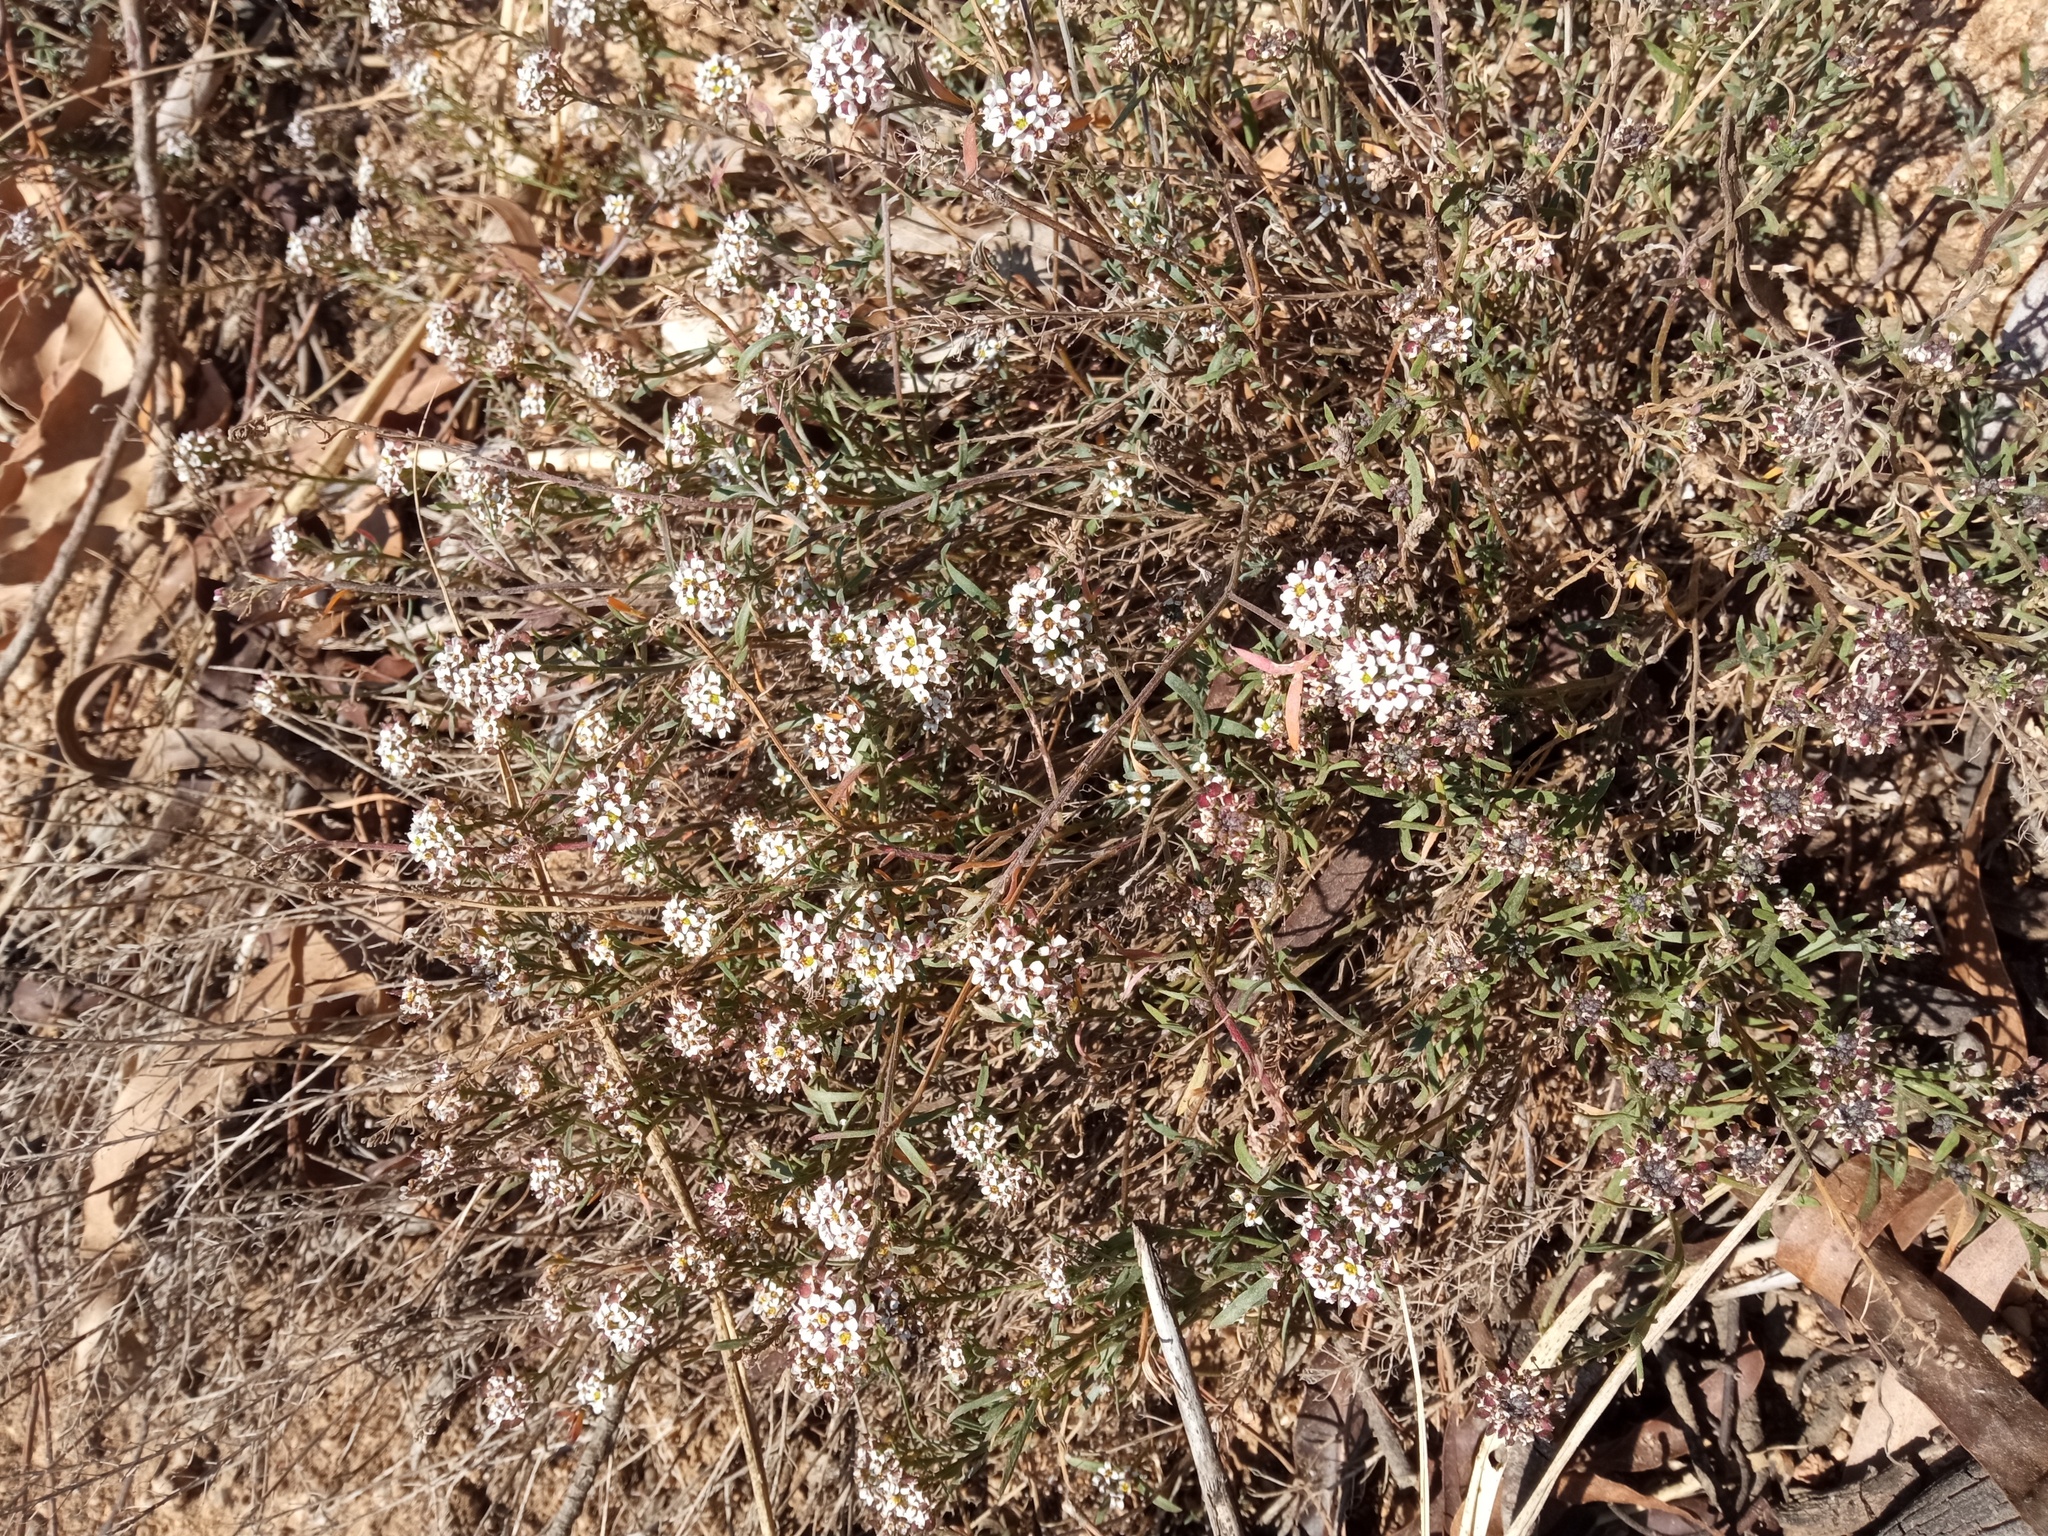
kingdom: Plantae
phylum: Tracheophyta
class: Magnoliopsida
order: Brassicales
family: Brassicaceae
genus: Lobularia
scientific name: Lobularia maritima
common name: Sweet alison
